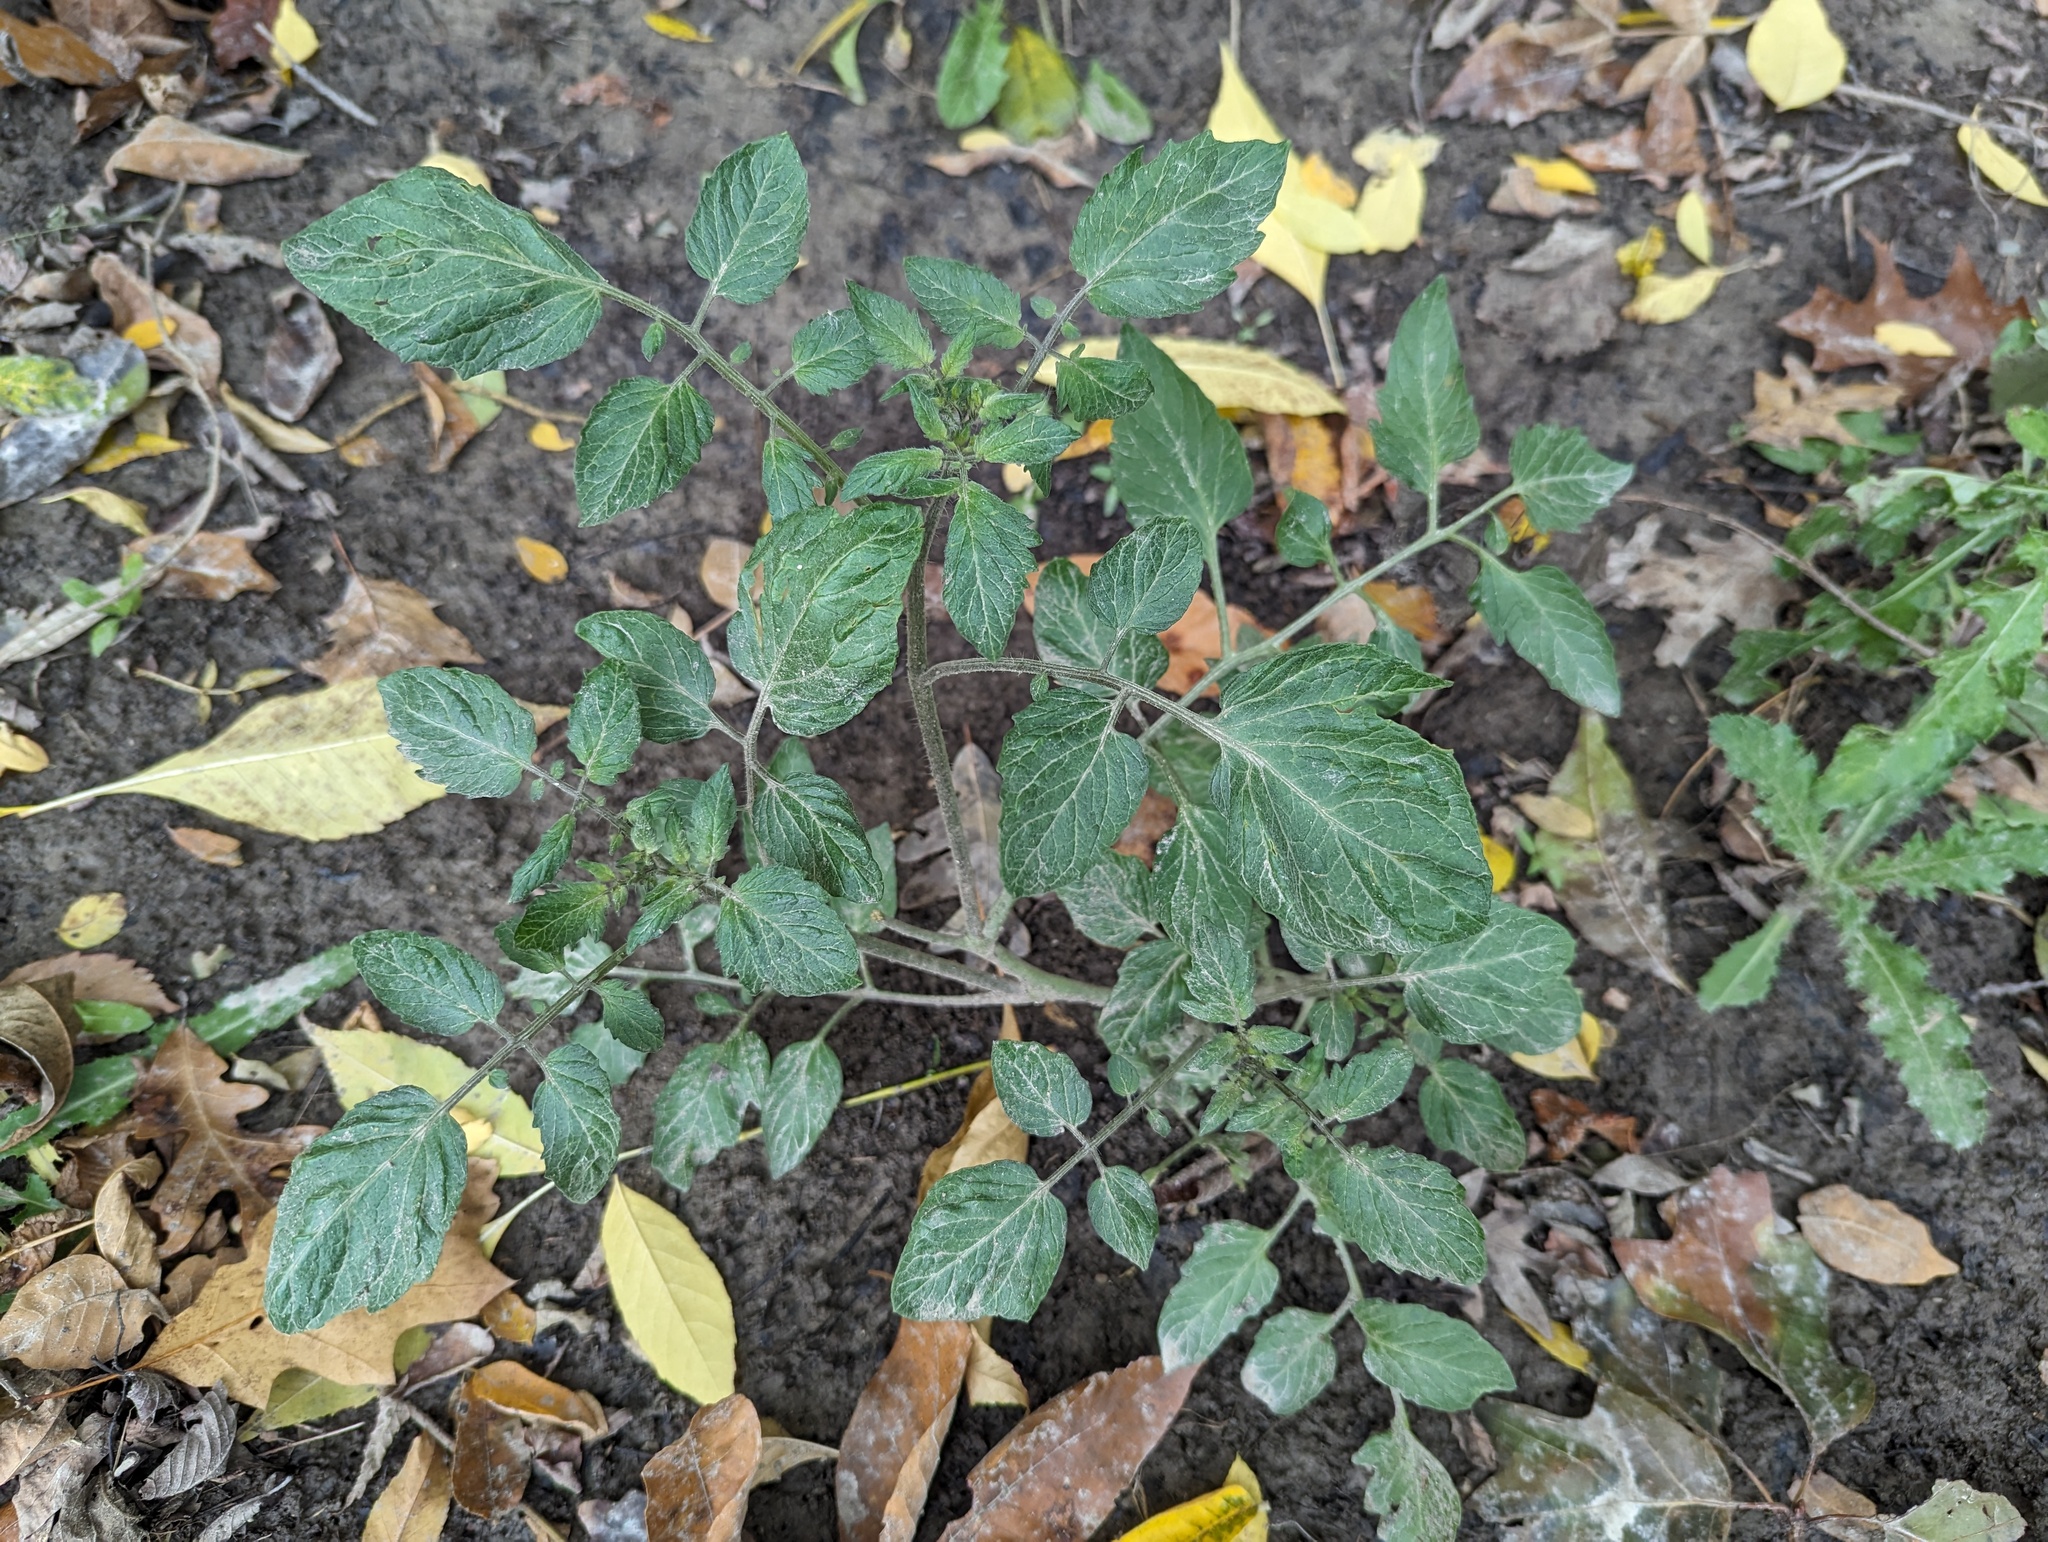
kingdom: Plantae
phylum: Tracheophyta
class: Magnoliopsida
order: Solanales
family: Solanaceae
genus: Solanum
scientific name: Solanum lycopersicum
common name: Garden tomato
